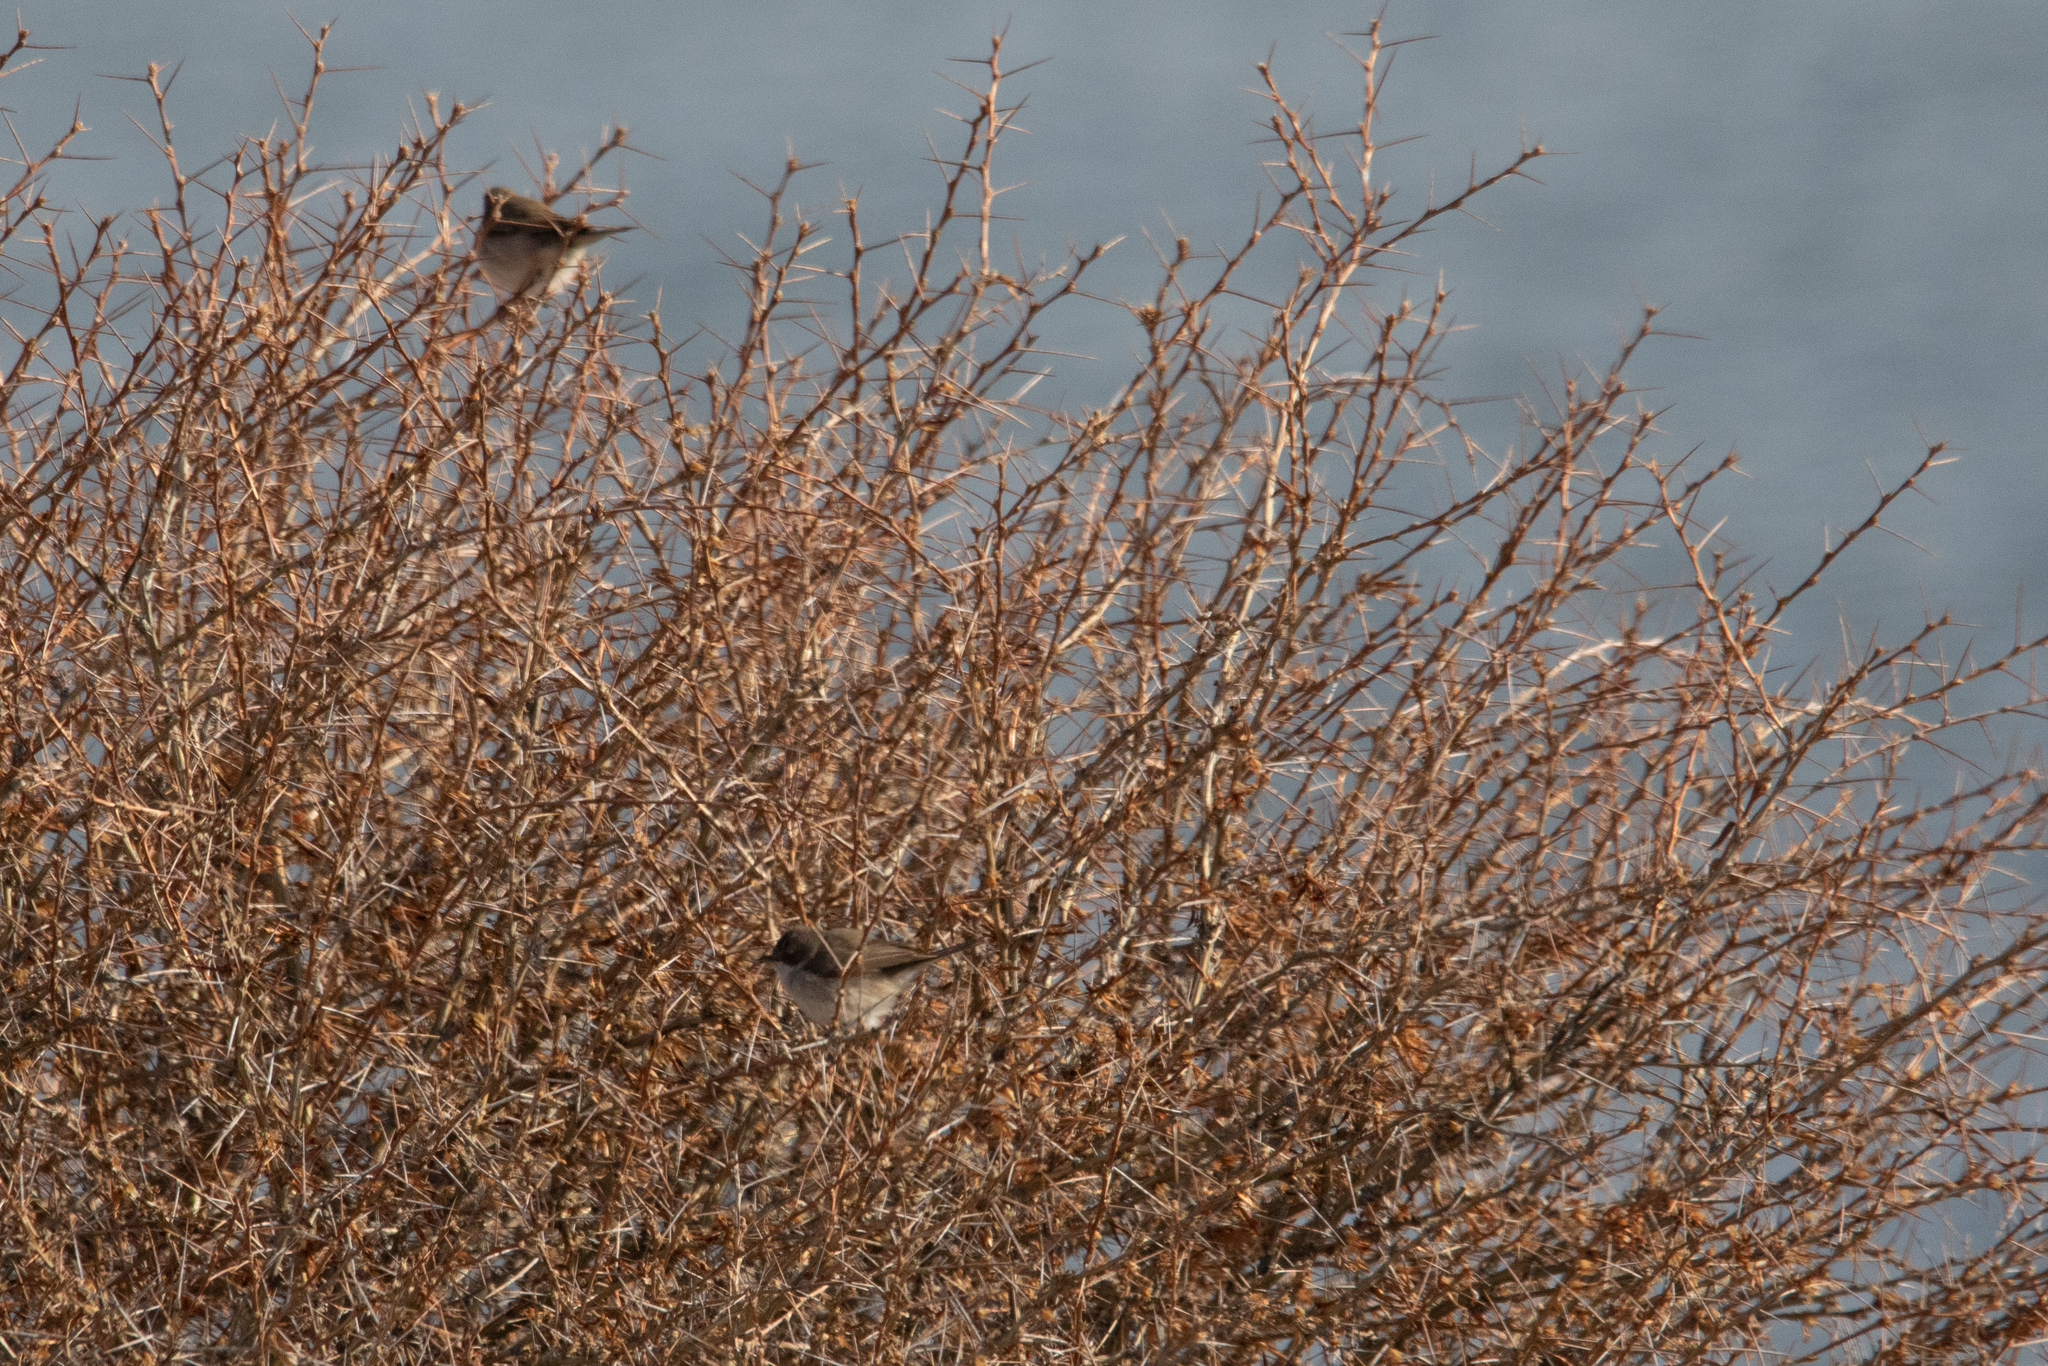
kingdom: Animalia
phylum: Chordata
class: Aves
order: Passeriformes
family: Sylviidae
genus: Sylvia
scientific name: Sylvia curruca
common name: Lesser whitethroat
